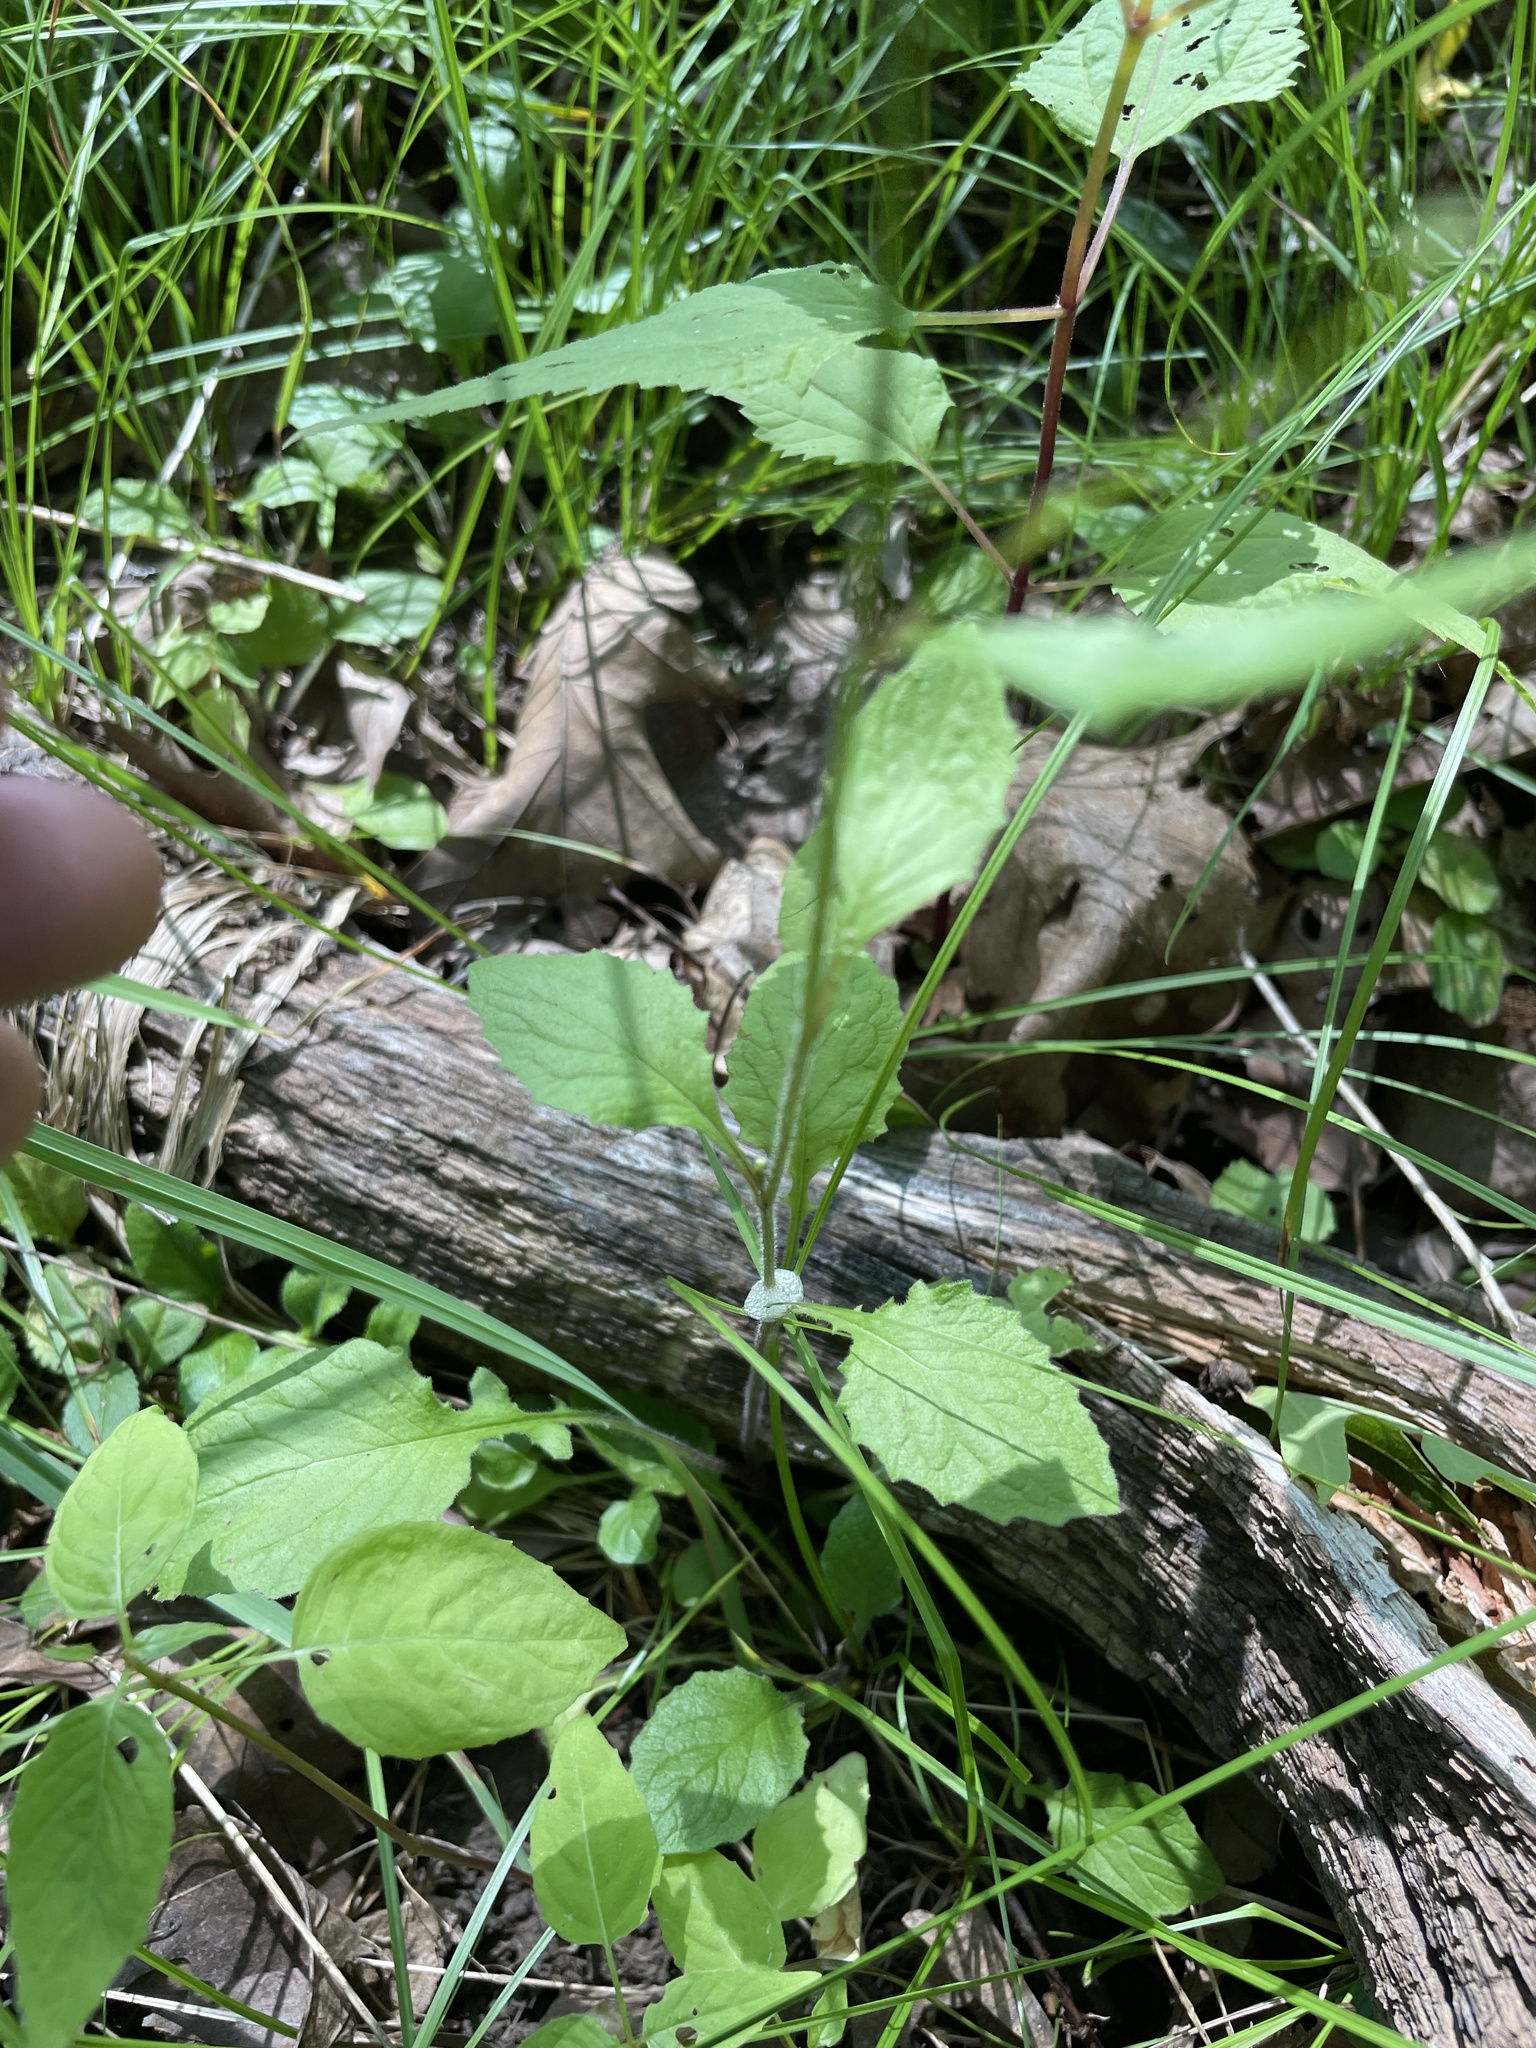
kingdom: Plantae
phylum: Tracheophyta
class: Magnoliopsida
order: Asterales
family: Asteraceae
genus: Lapsana
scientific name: Lapsana communis
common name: Nipplewort
